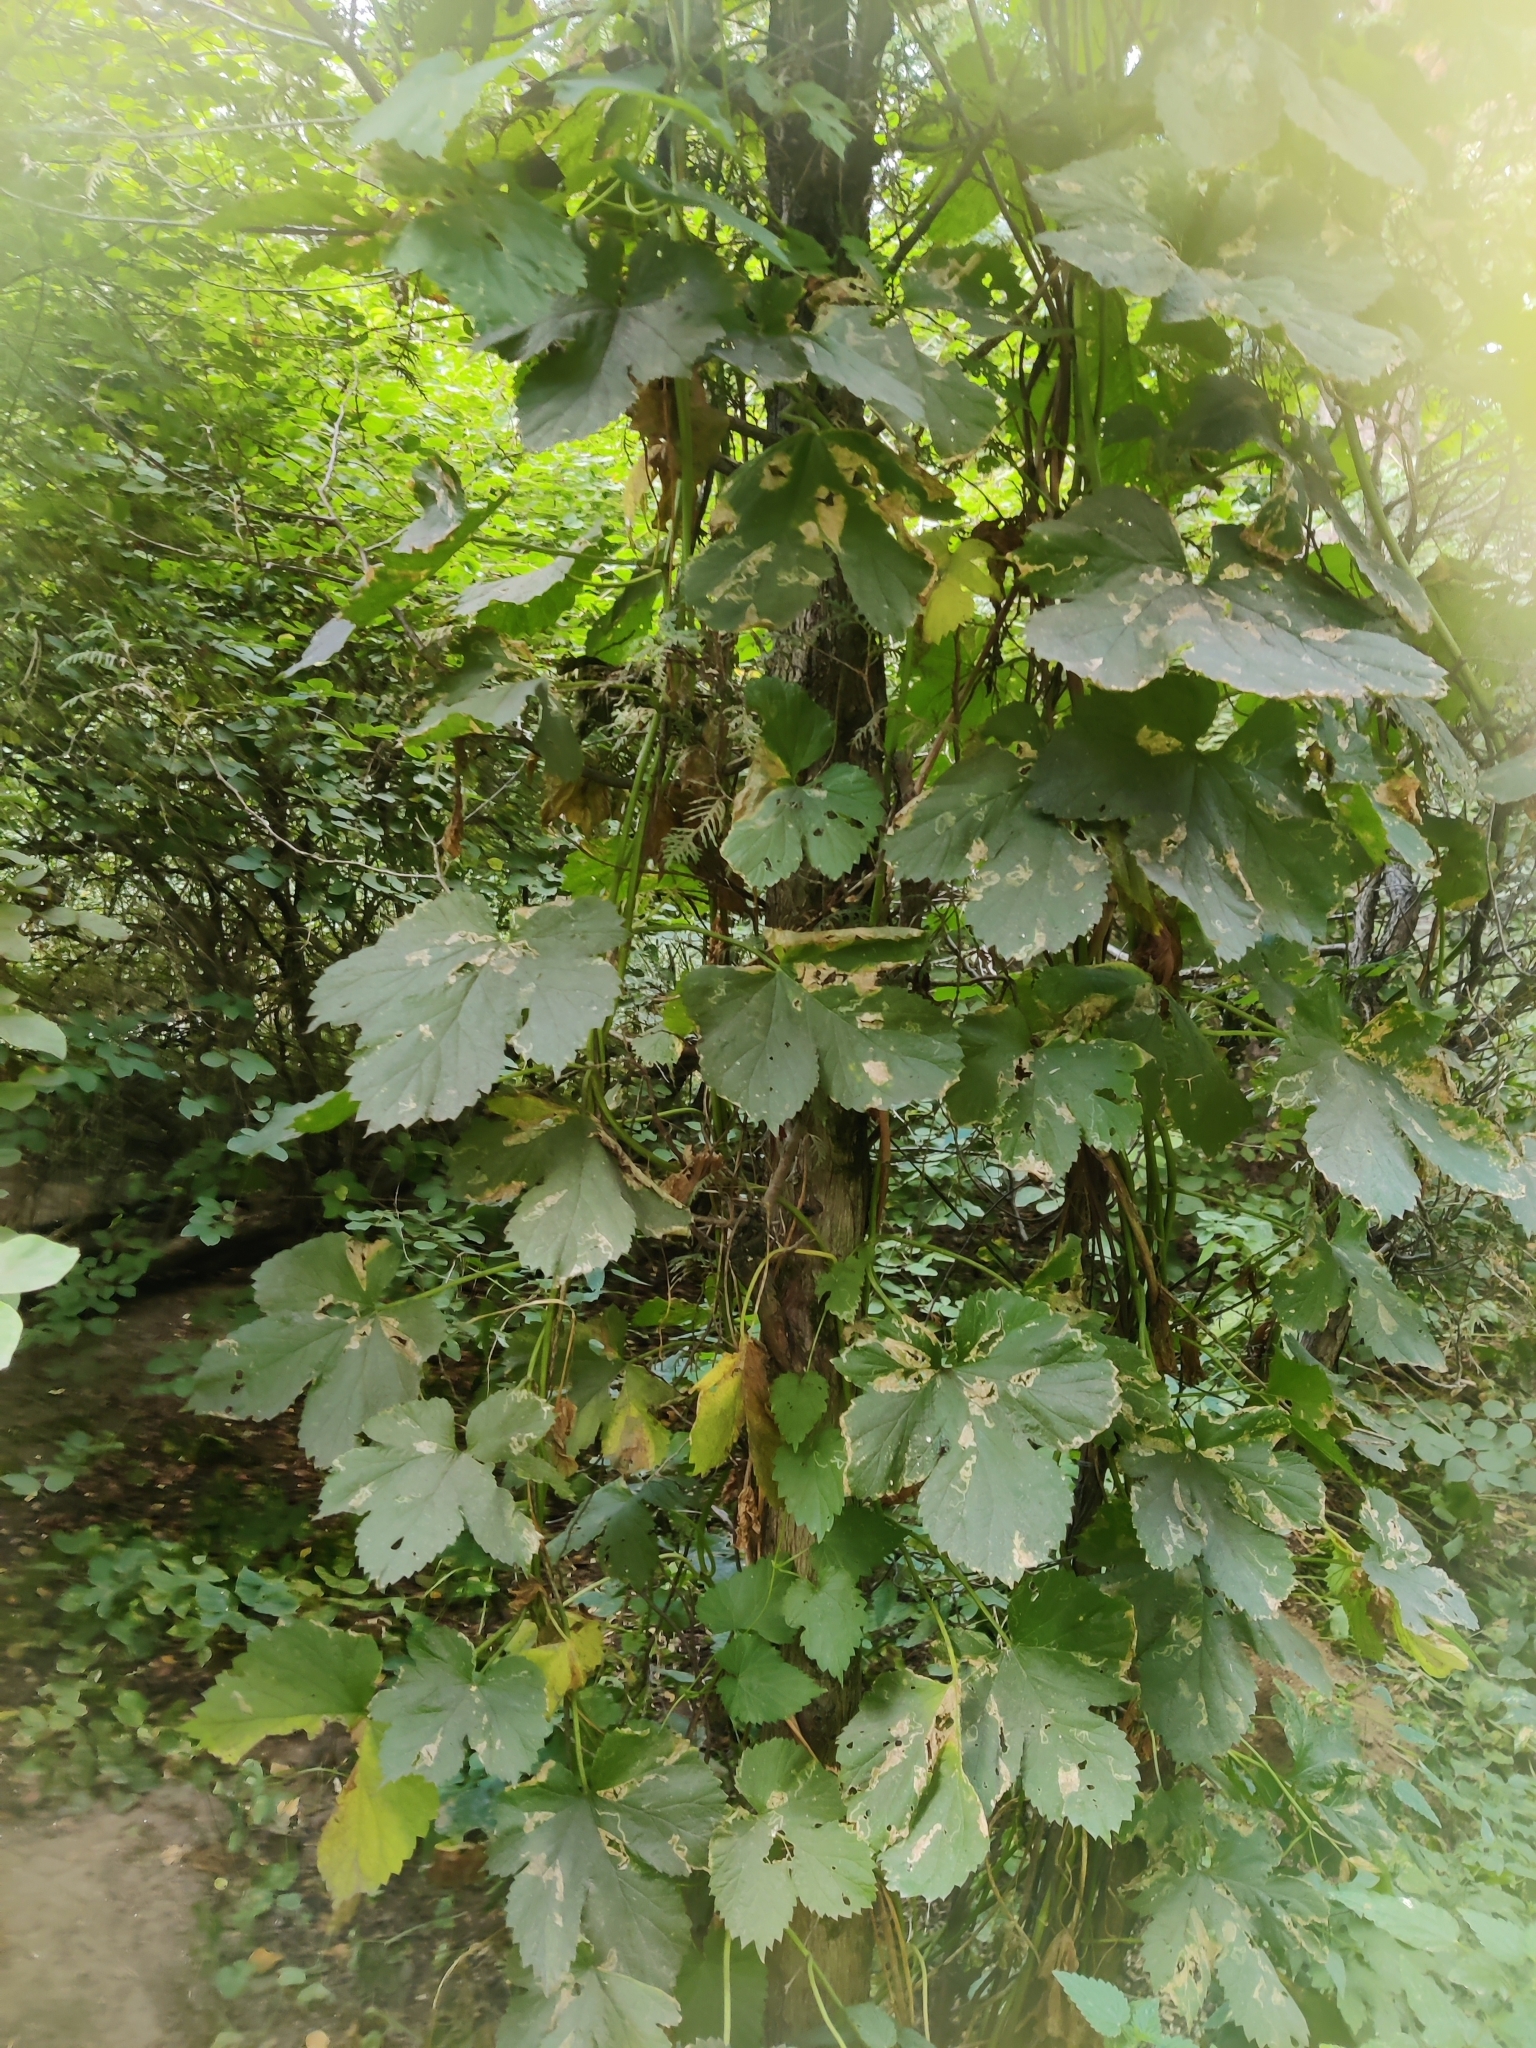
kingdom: Plantae
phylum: Tracheophyta
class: Magnoliopsida
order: Rosales
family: Cannabaceae
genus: Humulus
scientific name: Humulus lupulus
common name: Hop
